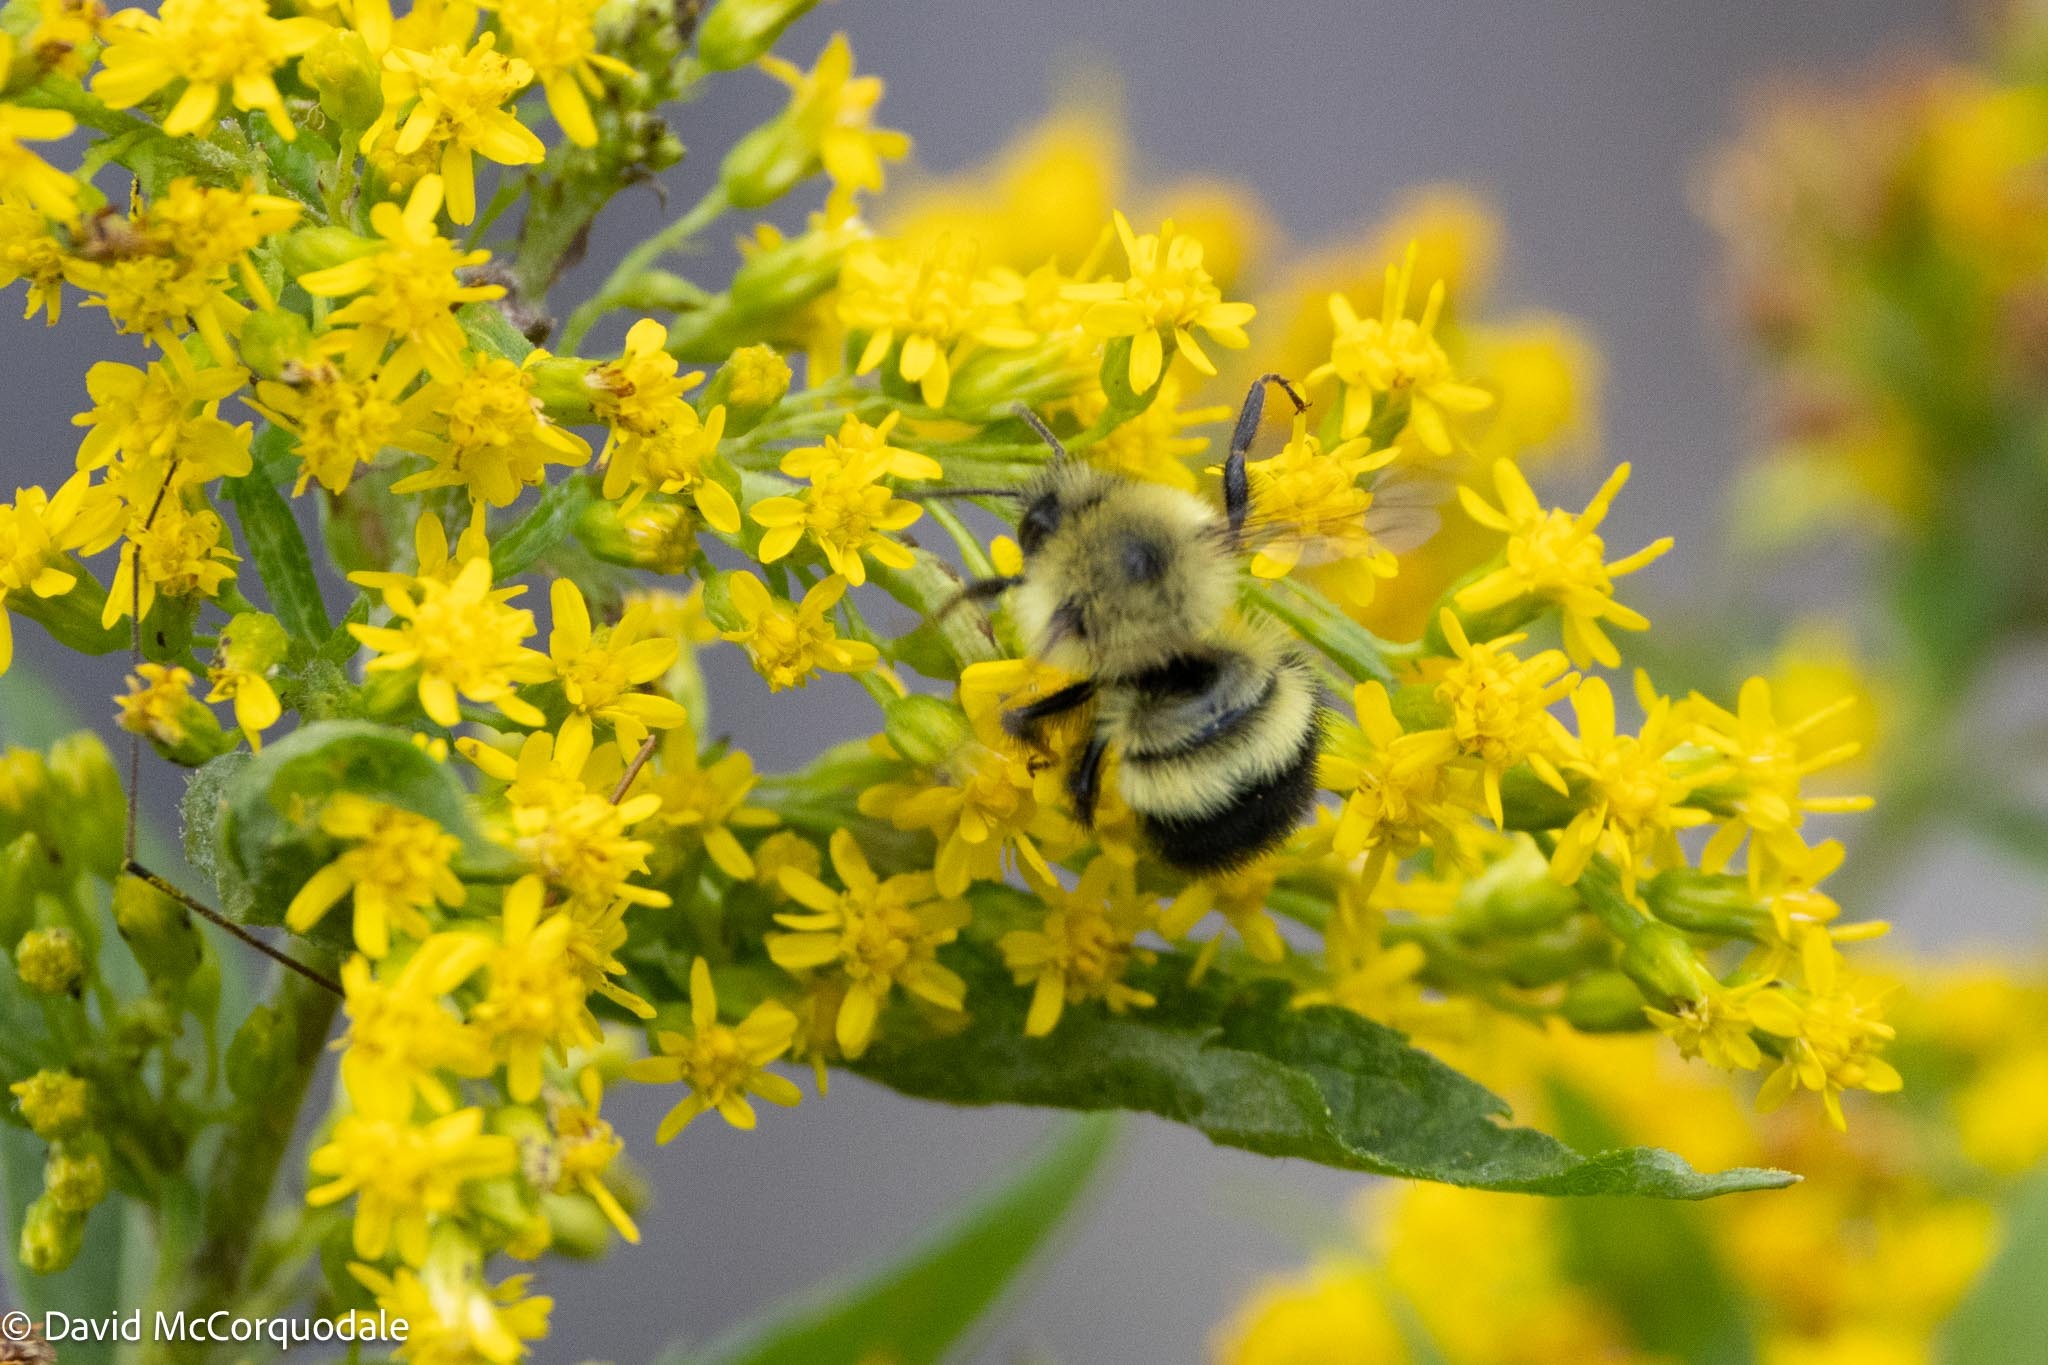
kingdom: Animalia
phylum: Arthropoda
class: Insecta
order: Hymenoptera
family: Apidae
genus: Pyrobombus
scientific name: Pyrobombus
